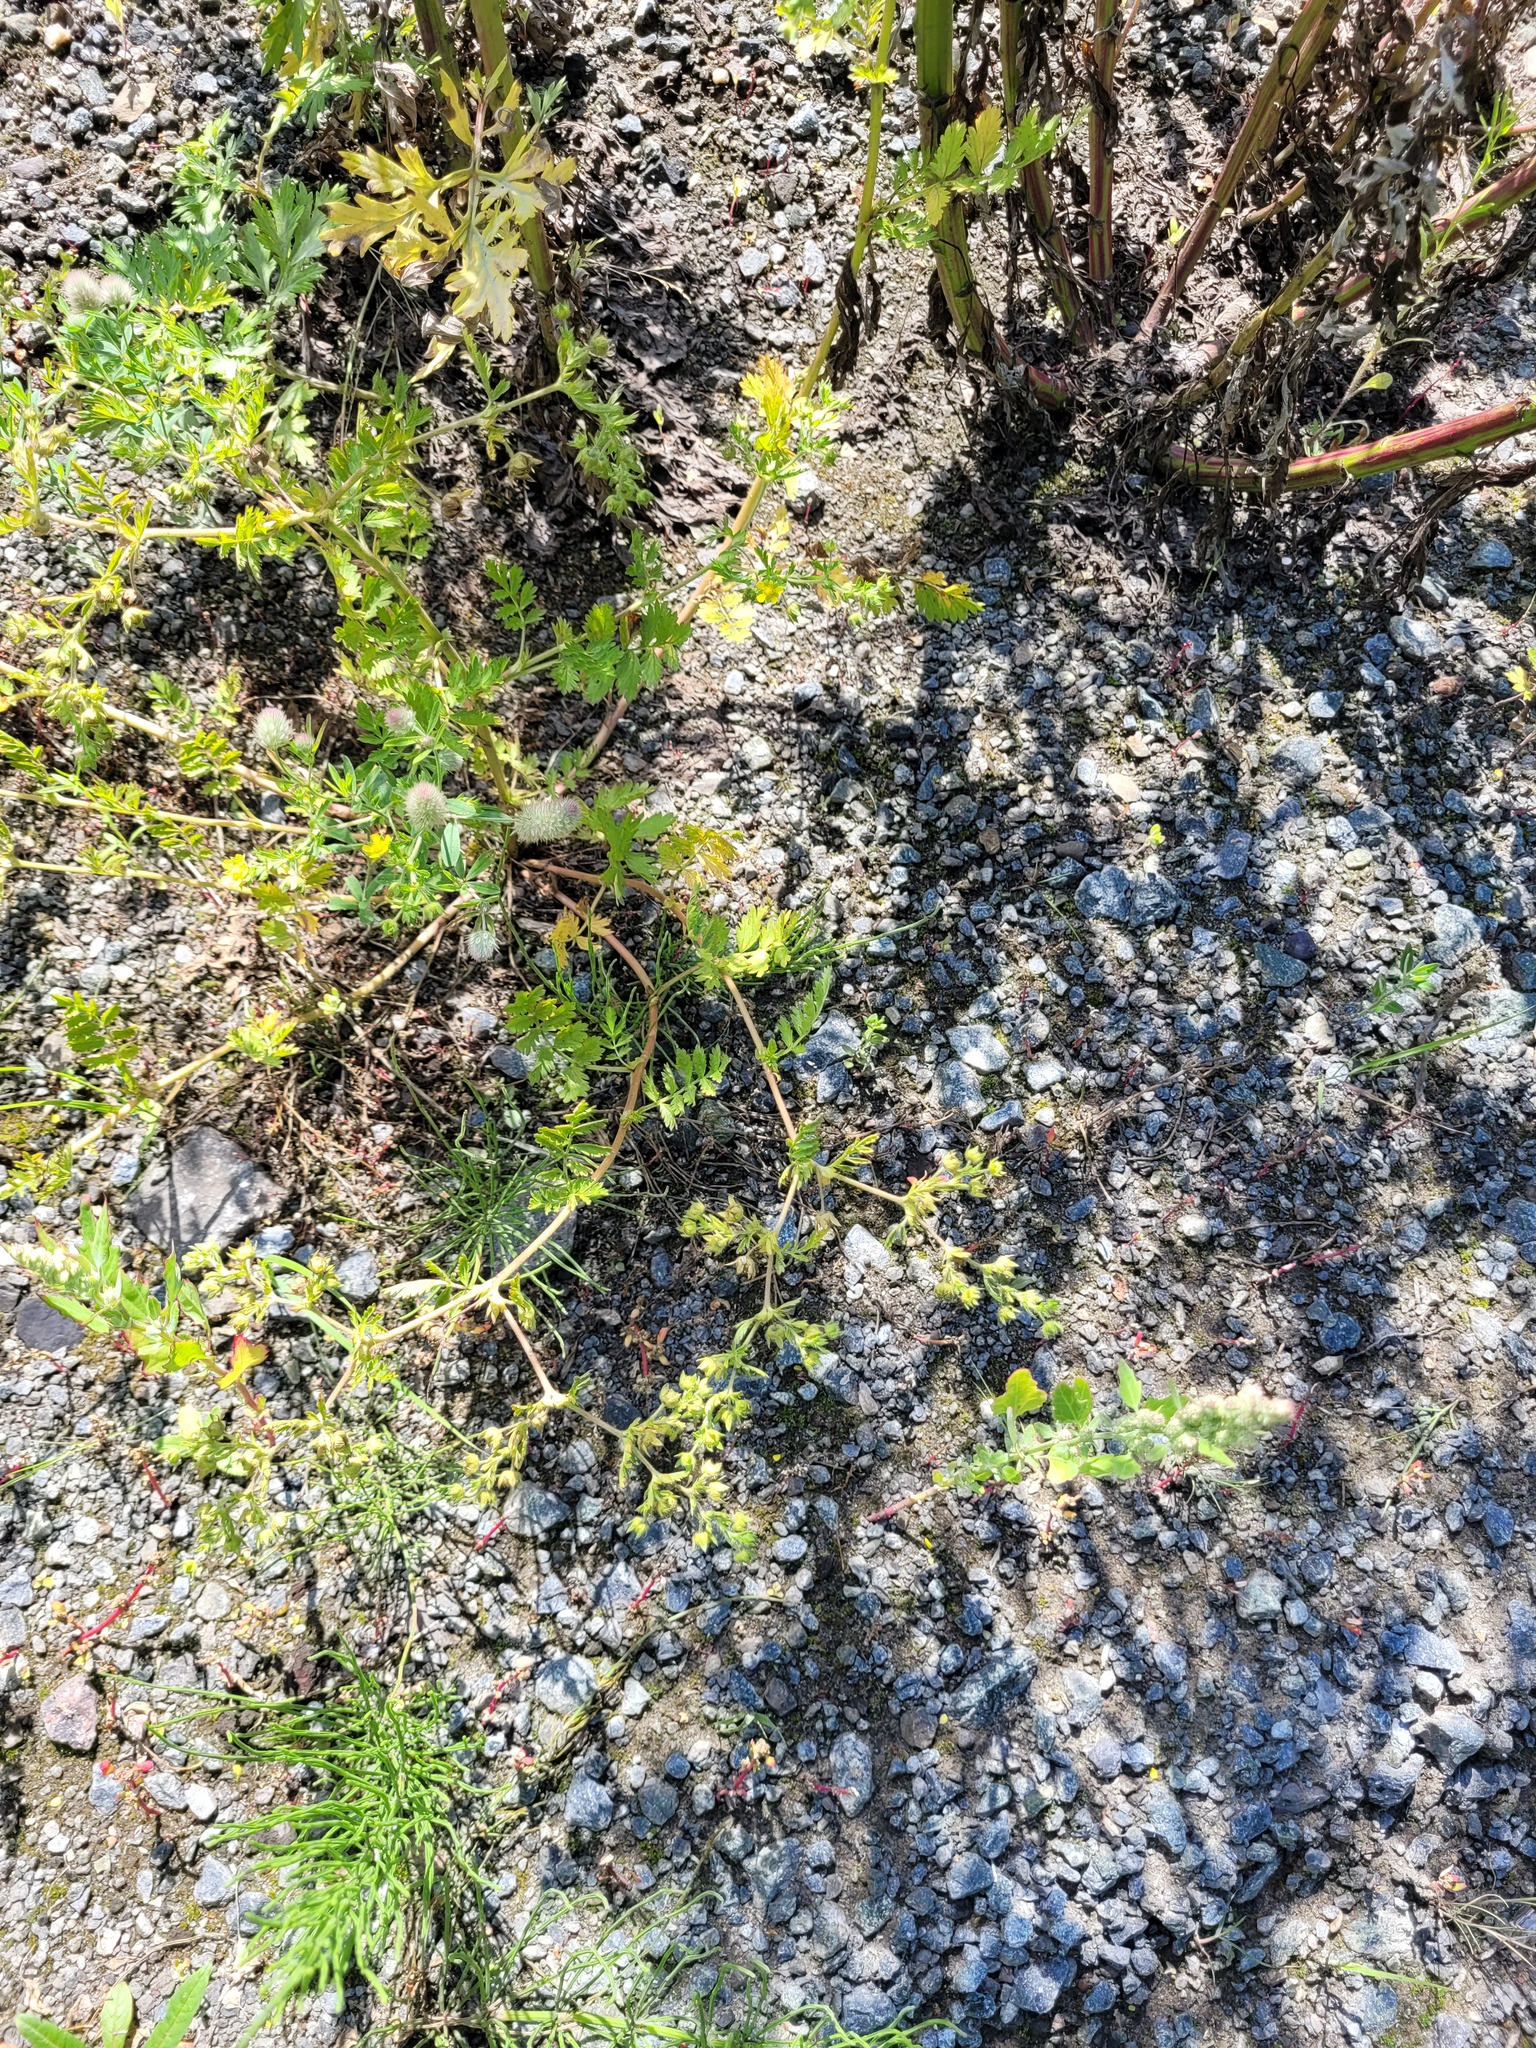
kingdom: Plantae
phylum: Tracheophyta
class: Magnoliopsida
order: Rosales
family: Rosaceae
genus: Potentilla
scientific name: Potentilla supina
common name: Prostrate cinquefoil
